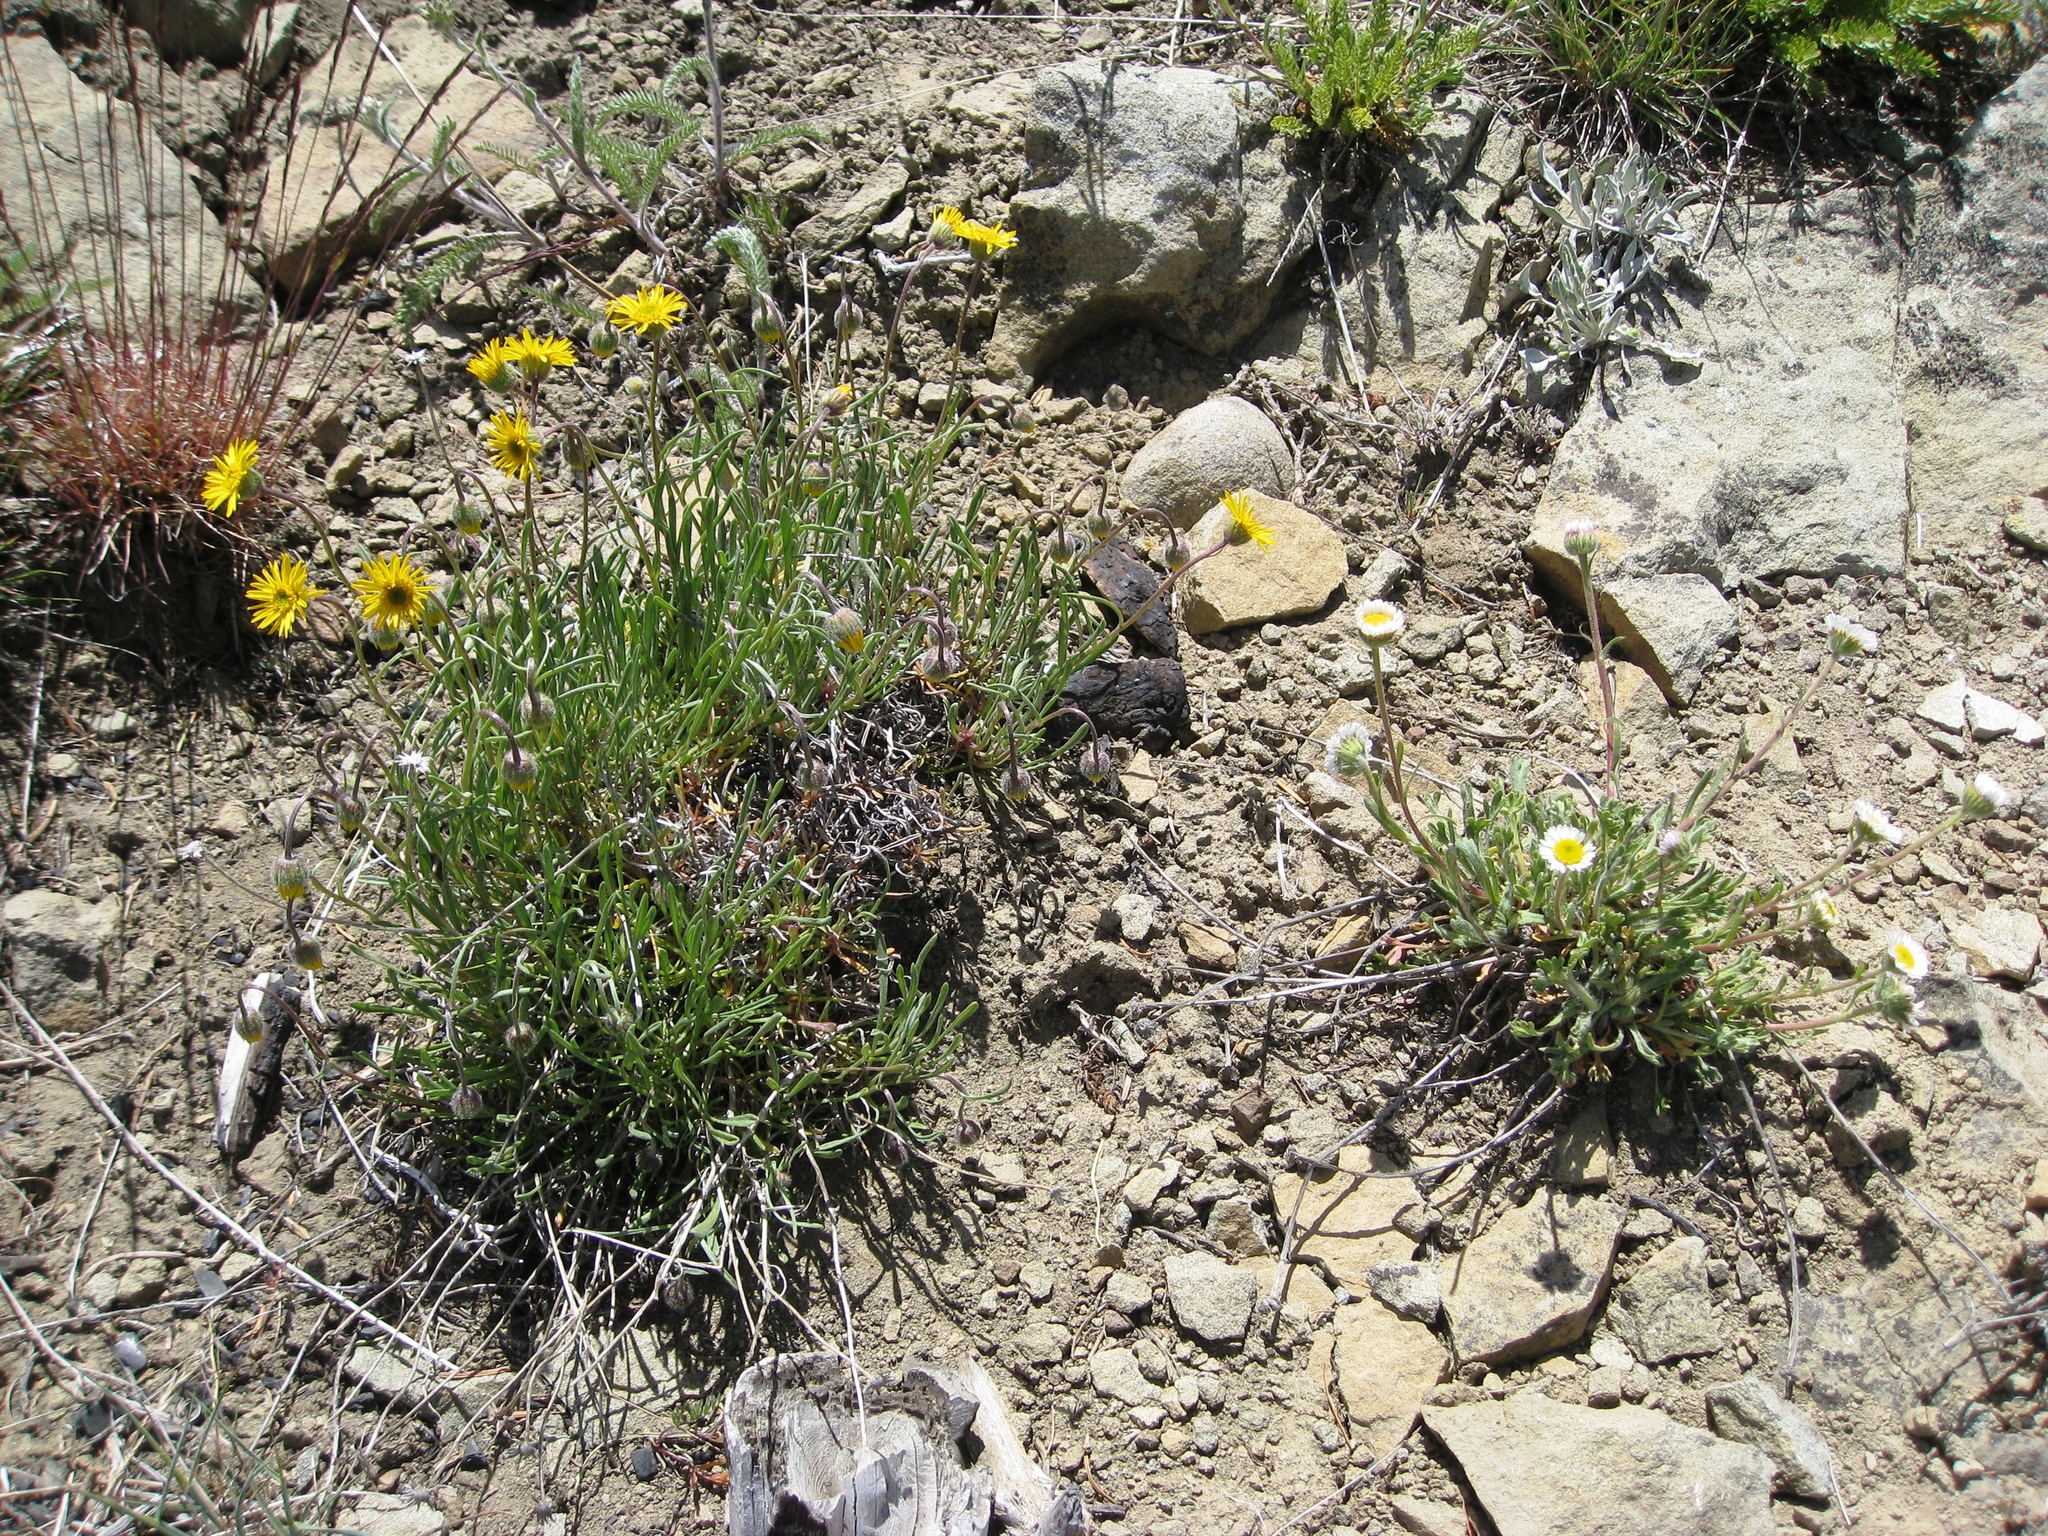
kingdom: Plantae
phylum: Tracheophyta
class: Magnoliopsida
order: Asterales
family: Asteraceae
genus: Erigeron
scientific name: Erigeron compositus
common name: Dwarf mountain fleabane
